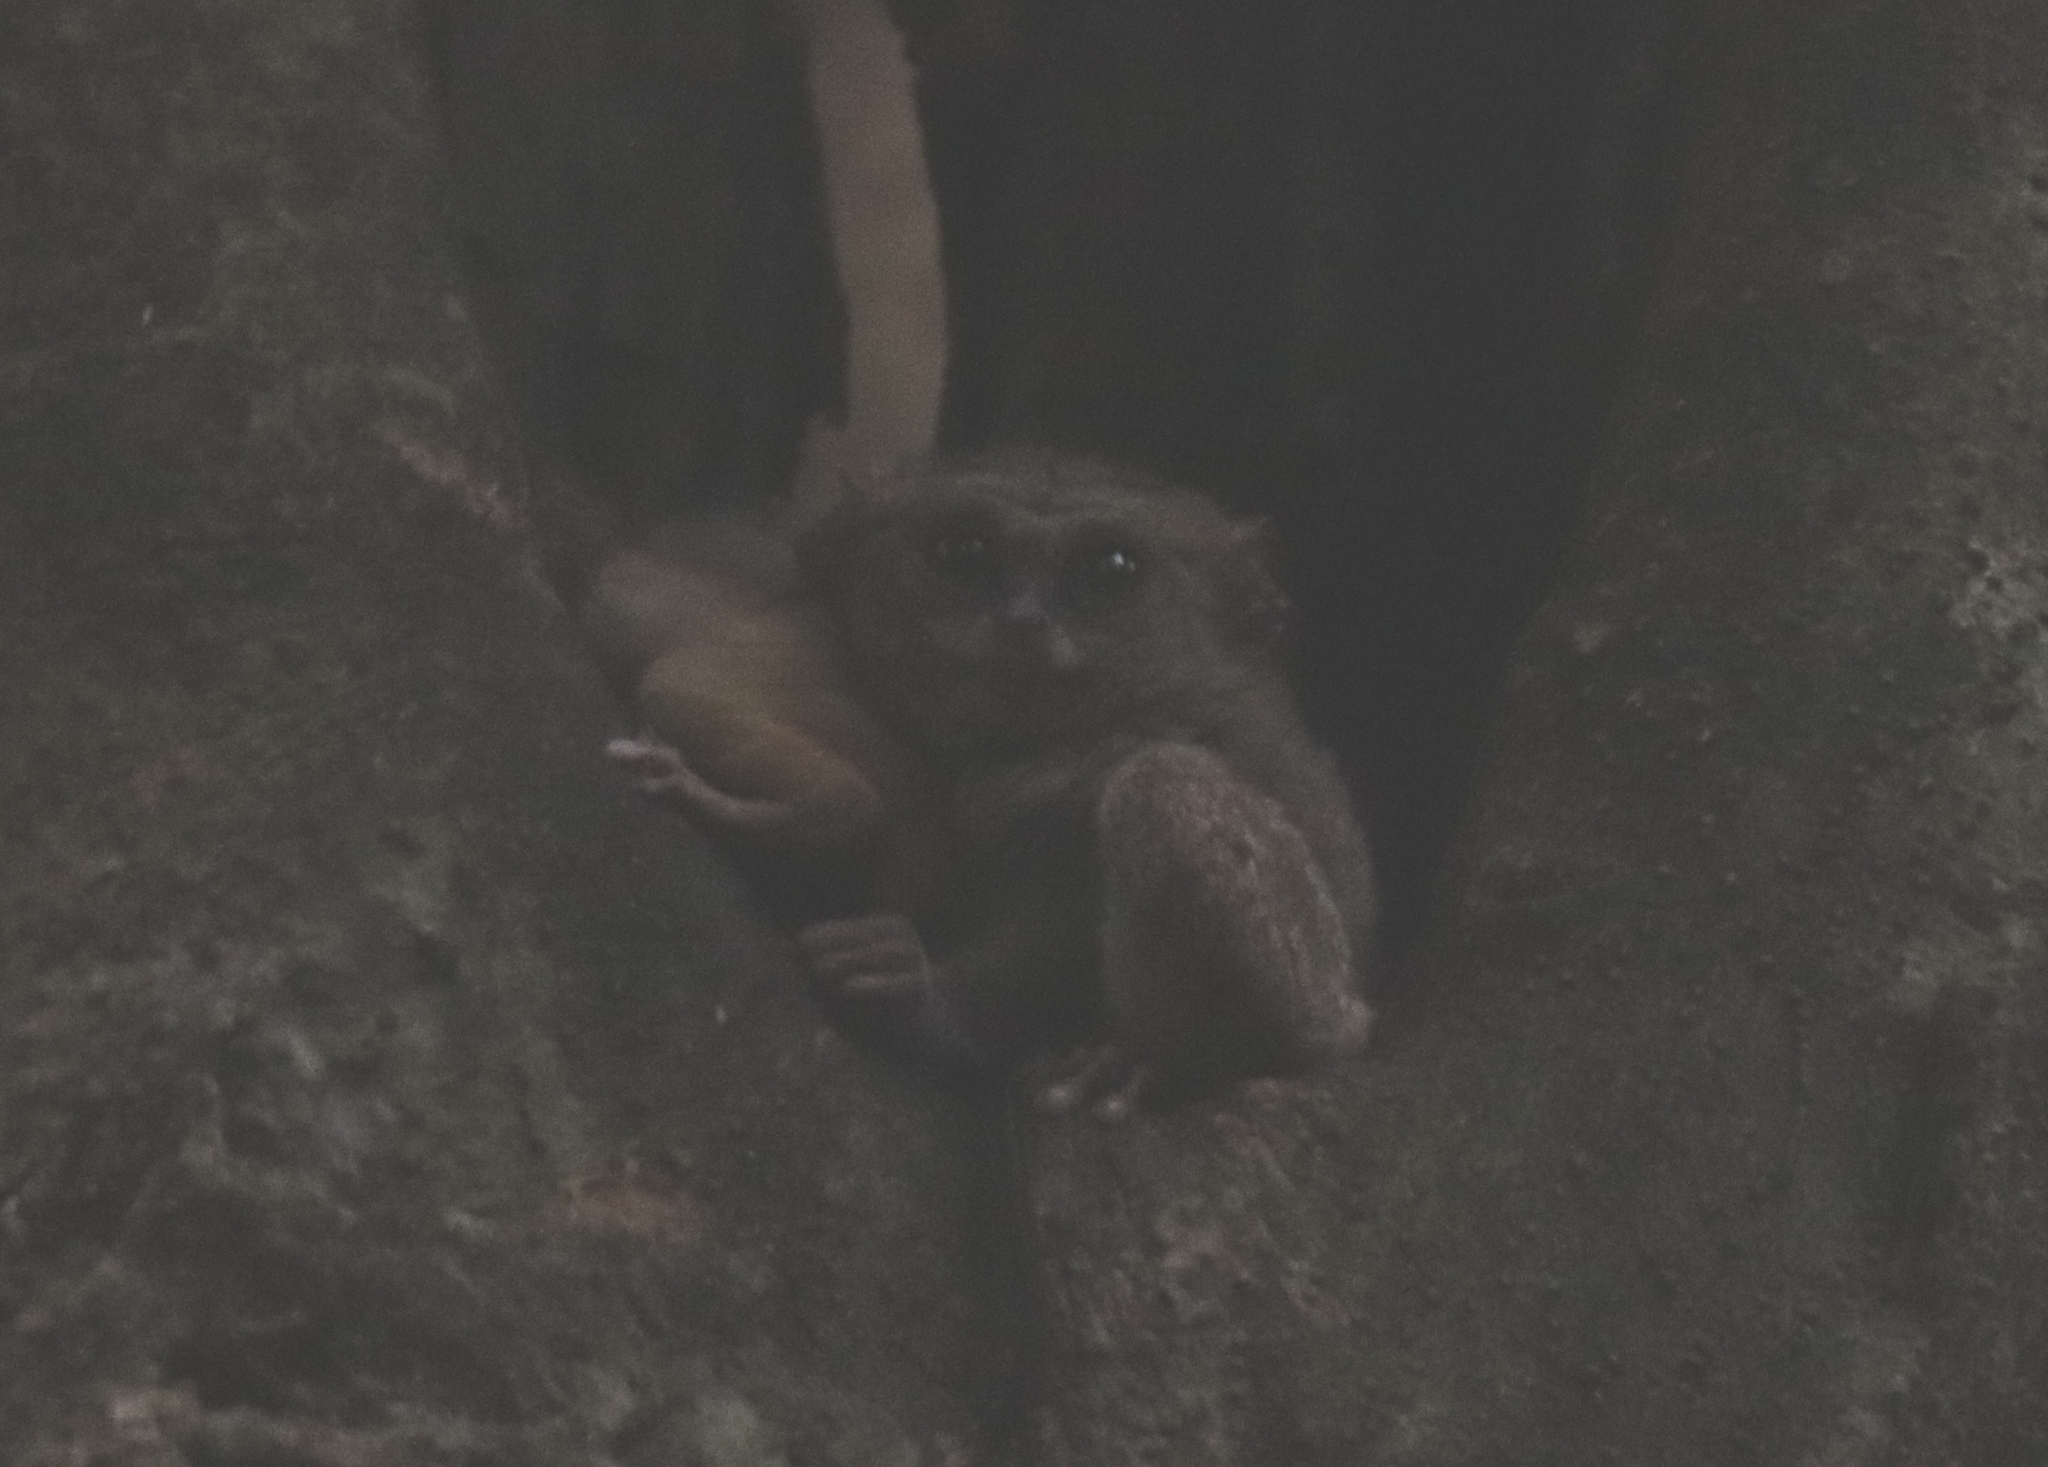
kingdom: Animalia
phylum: Chordata
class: Mammalia
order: Primates
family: Tarsiidae
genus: Tarsius
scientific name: Tarsius spectrumgurskyae
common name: Gursky's spectral tarsier
